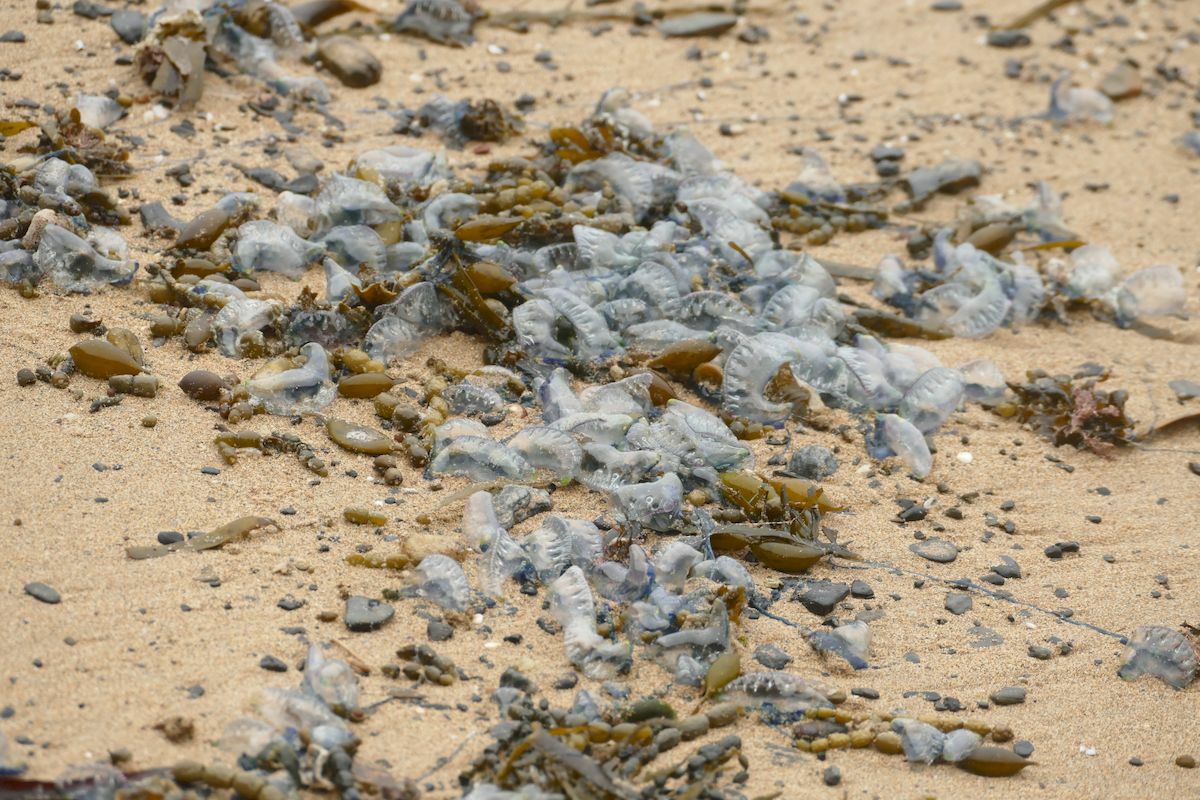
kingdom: Animalia
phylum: Cnidaria
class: Hydrozoa
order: Siphonophorae
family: Physaliidae
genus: Physalia
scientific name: Physalia physalis
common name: Portuguese man-of-war
